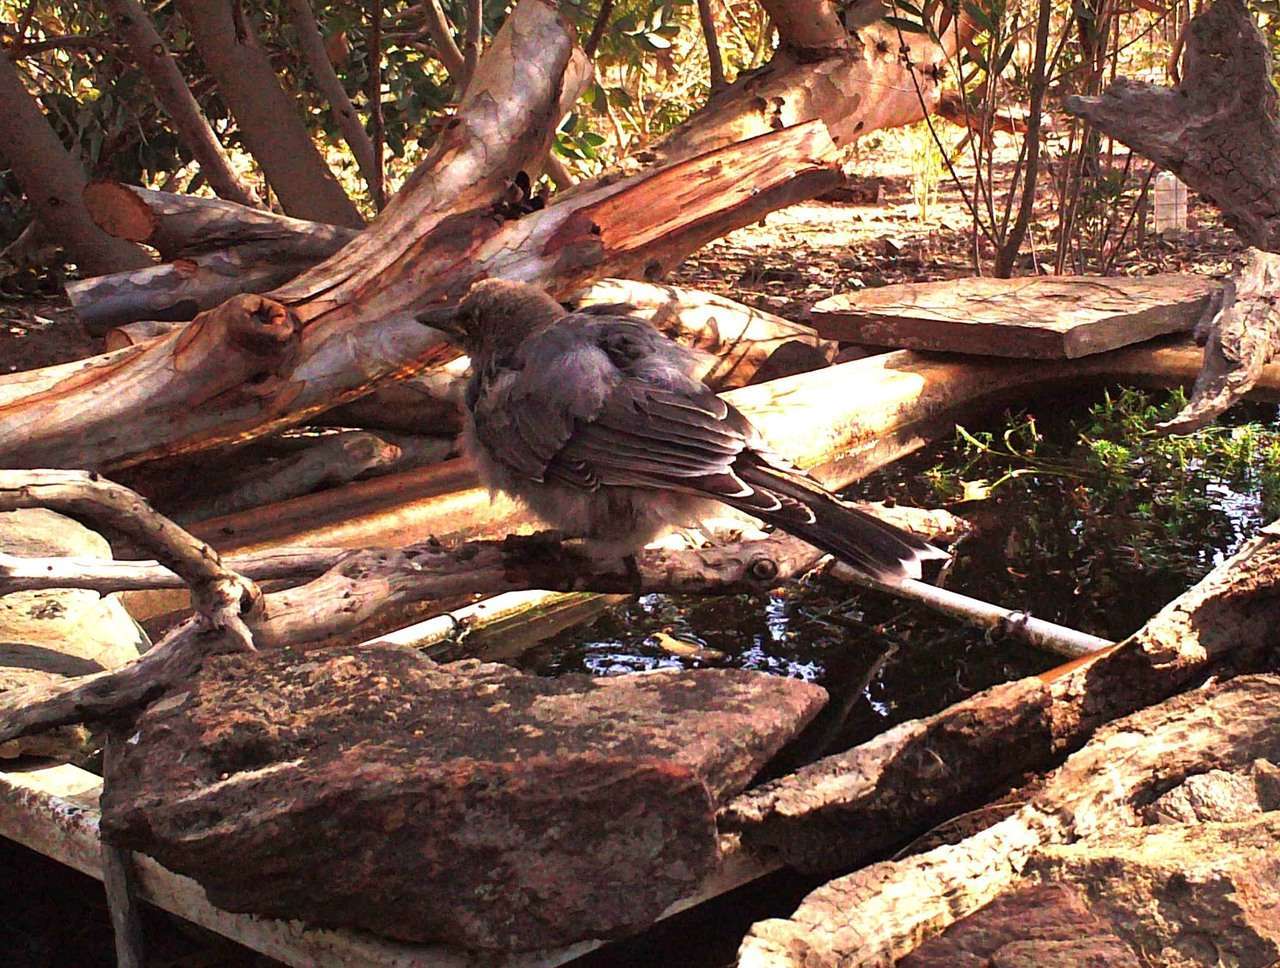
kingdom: Animalia
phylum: Chordata
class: Aves
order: Passeriformes
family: Cracticidae
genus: Strepera
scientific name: Strepera versicolor
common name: Grey currawong
